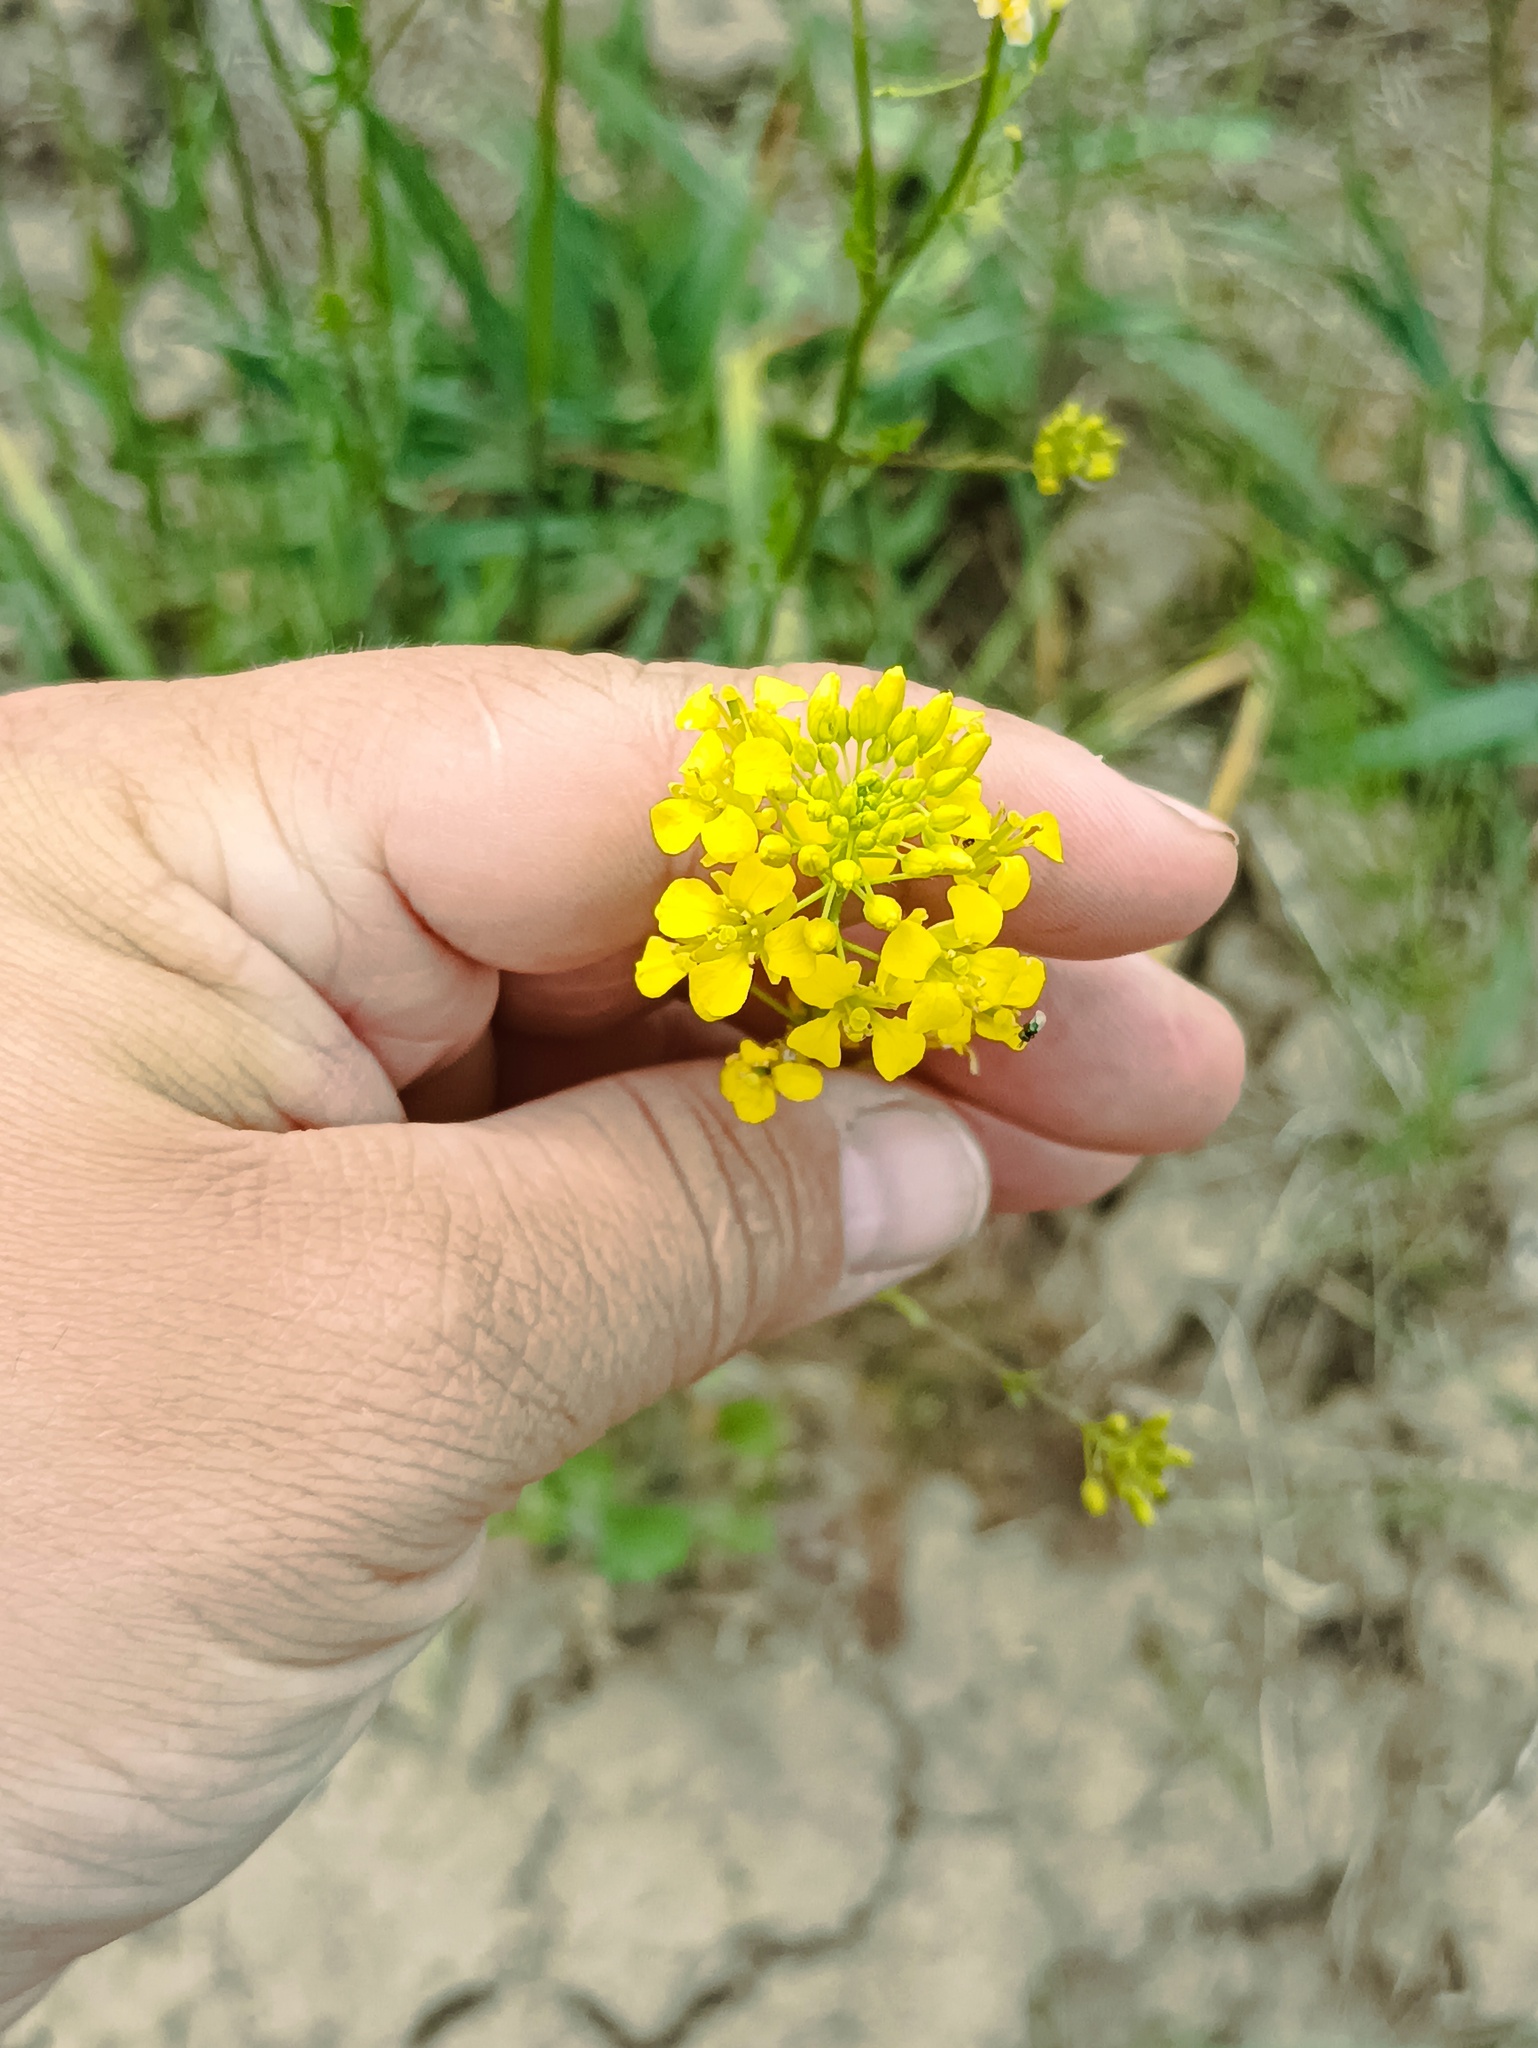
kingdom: Plantae
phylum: Tracheophyta
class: Magnoliopsida
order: Brassicales
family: Brassicaceae
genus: Sisymbrium
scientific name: Sisymbrium loeselii
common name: False london-rocket
